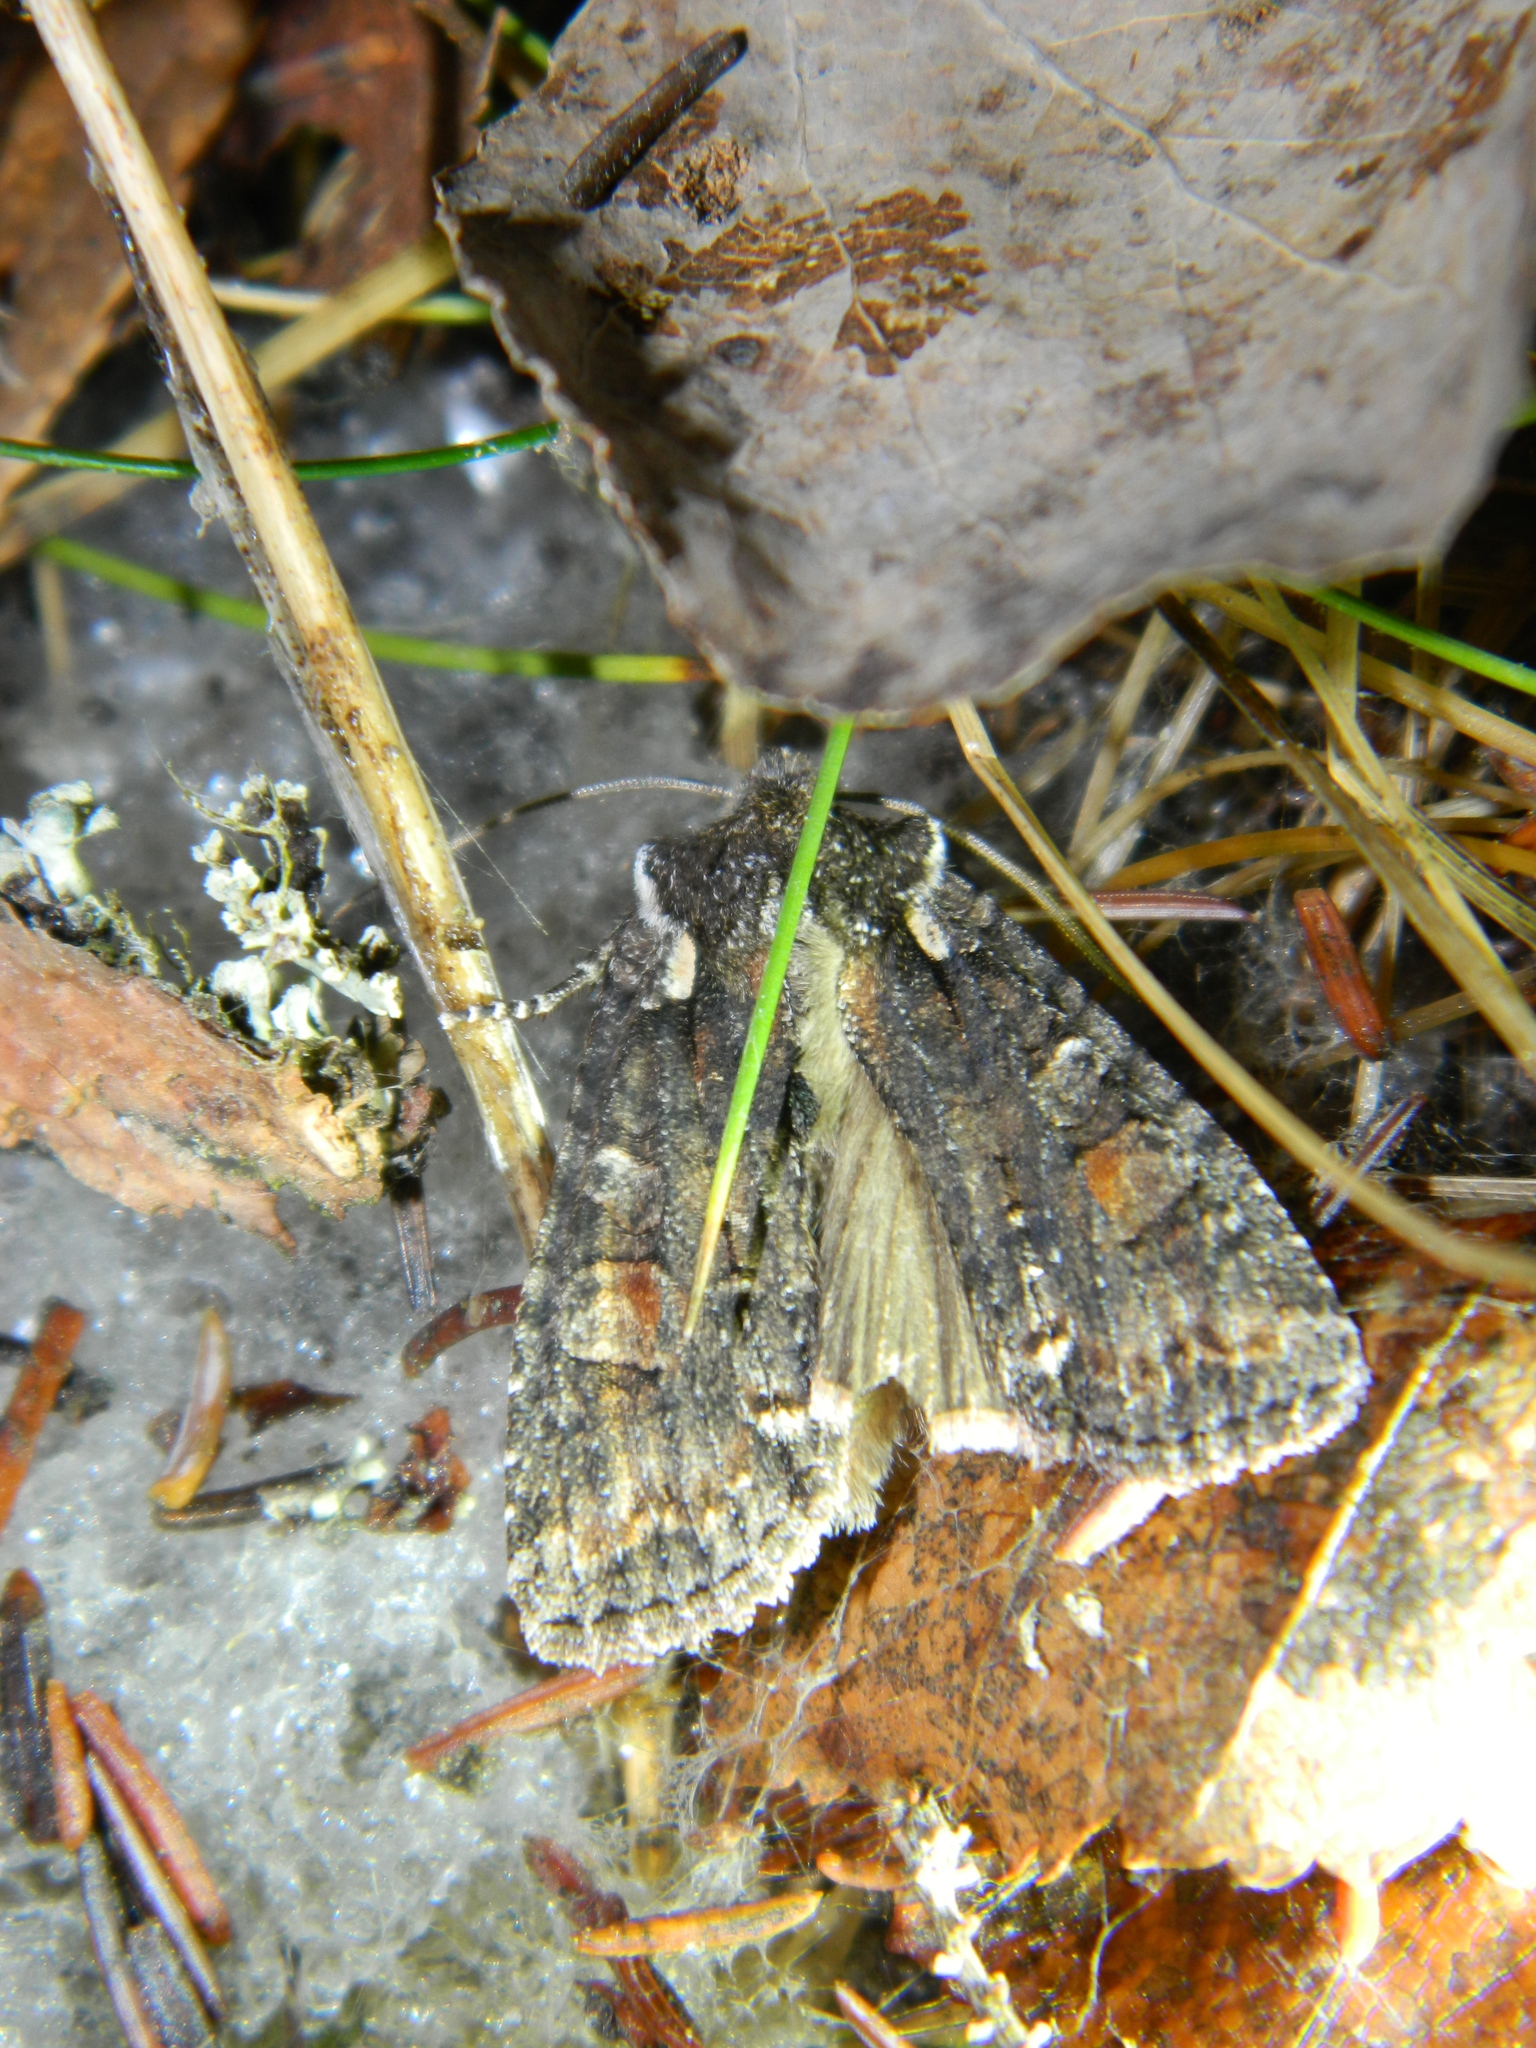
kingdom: Animalia
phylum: Arthropoda
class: Insecta
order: Lepidoptera
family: Noctuidae
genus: Lithophane
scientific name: Lithophane pexata
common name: Plush-naped pinion moth
